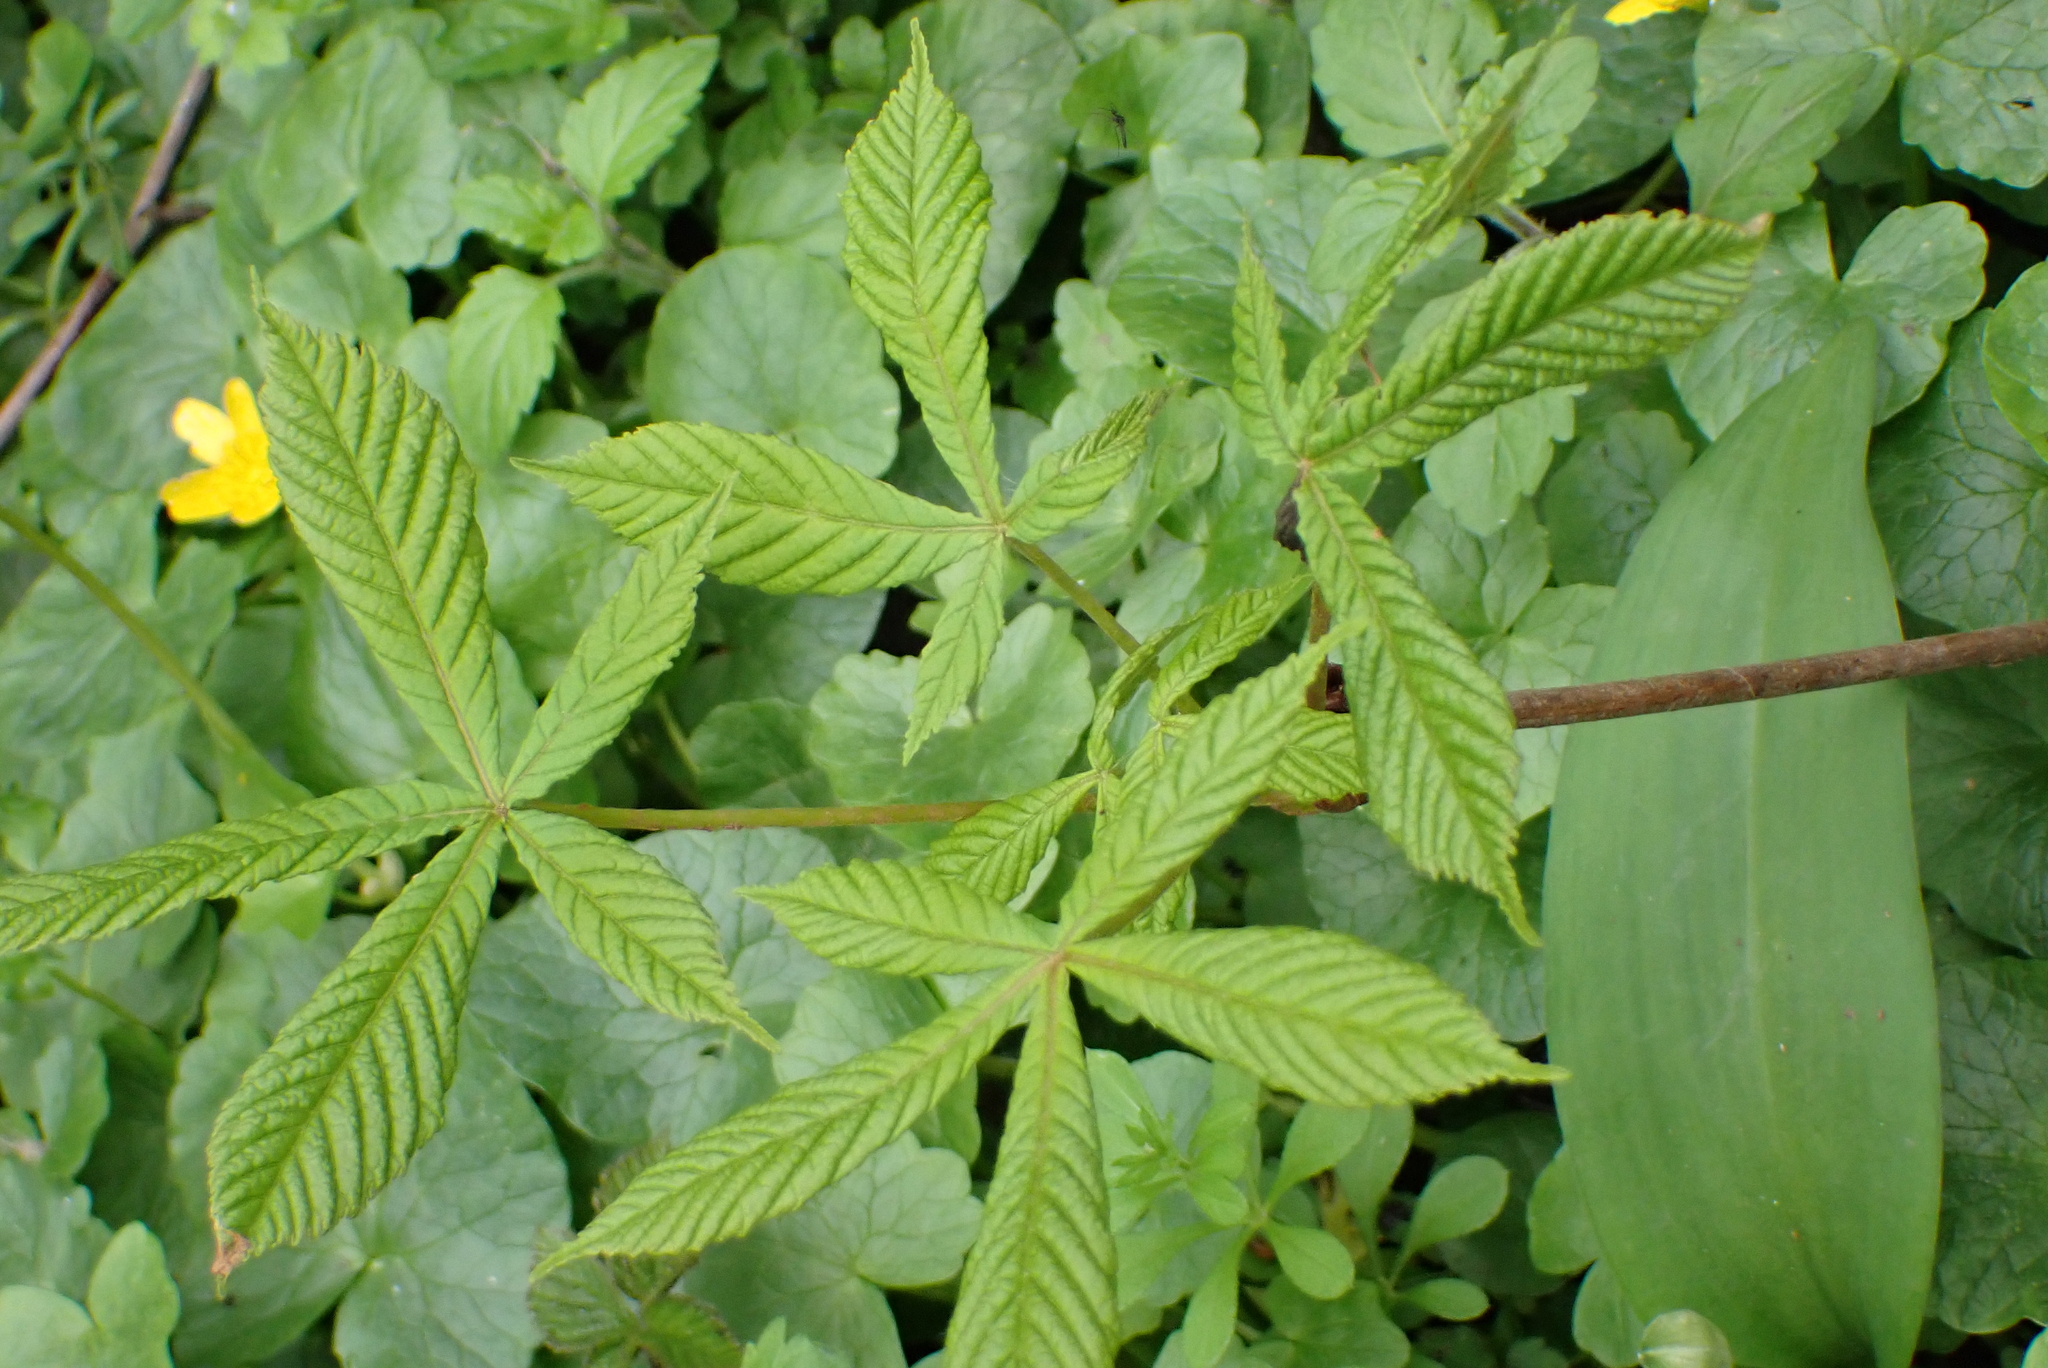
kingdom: Plantae
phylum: Tracheophyta
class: Magnoliopsida
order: Sapindales
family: Sapindaceae
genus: Aesculus
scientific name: Aesculus hippocastanum
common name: Horse-chestnut
